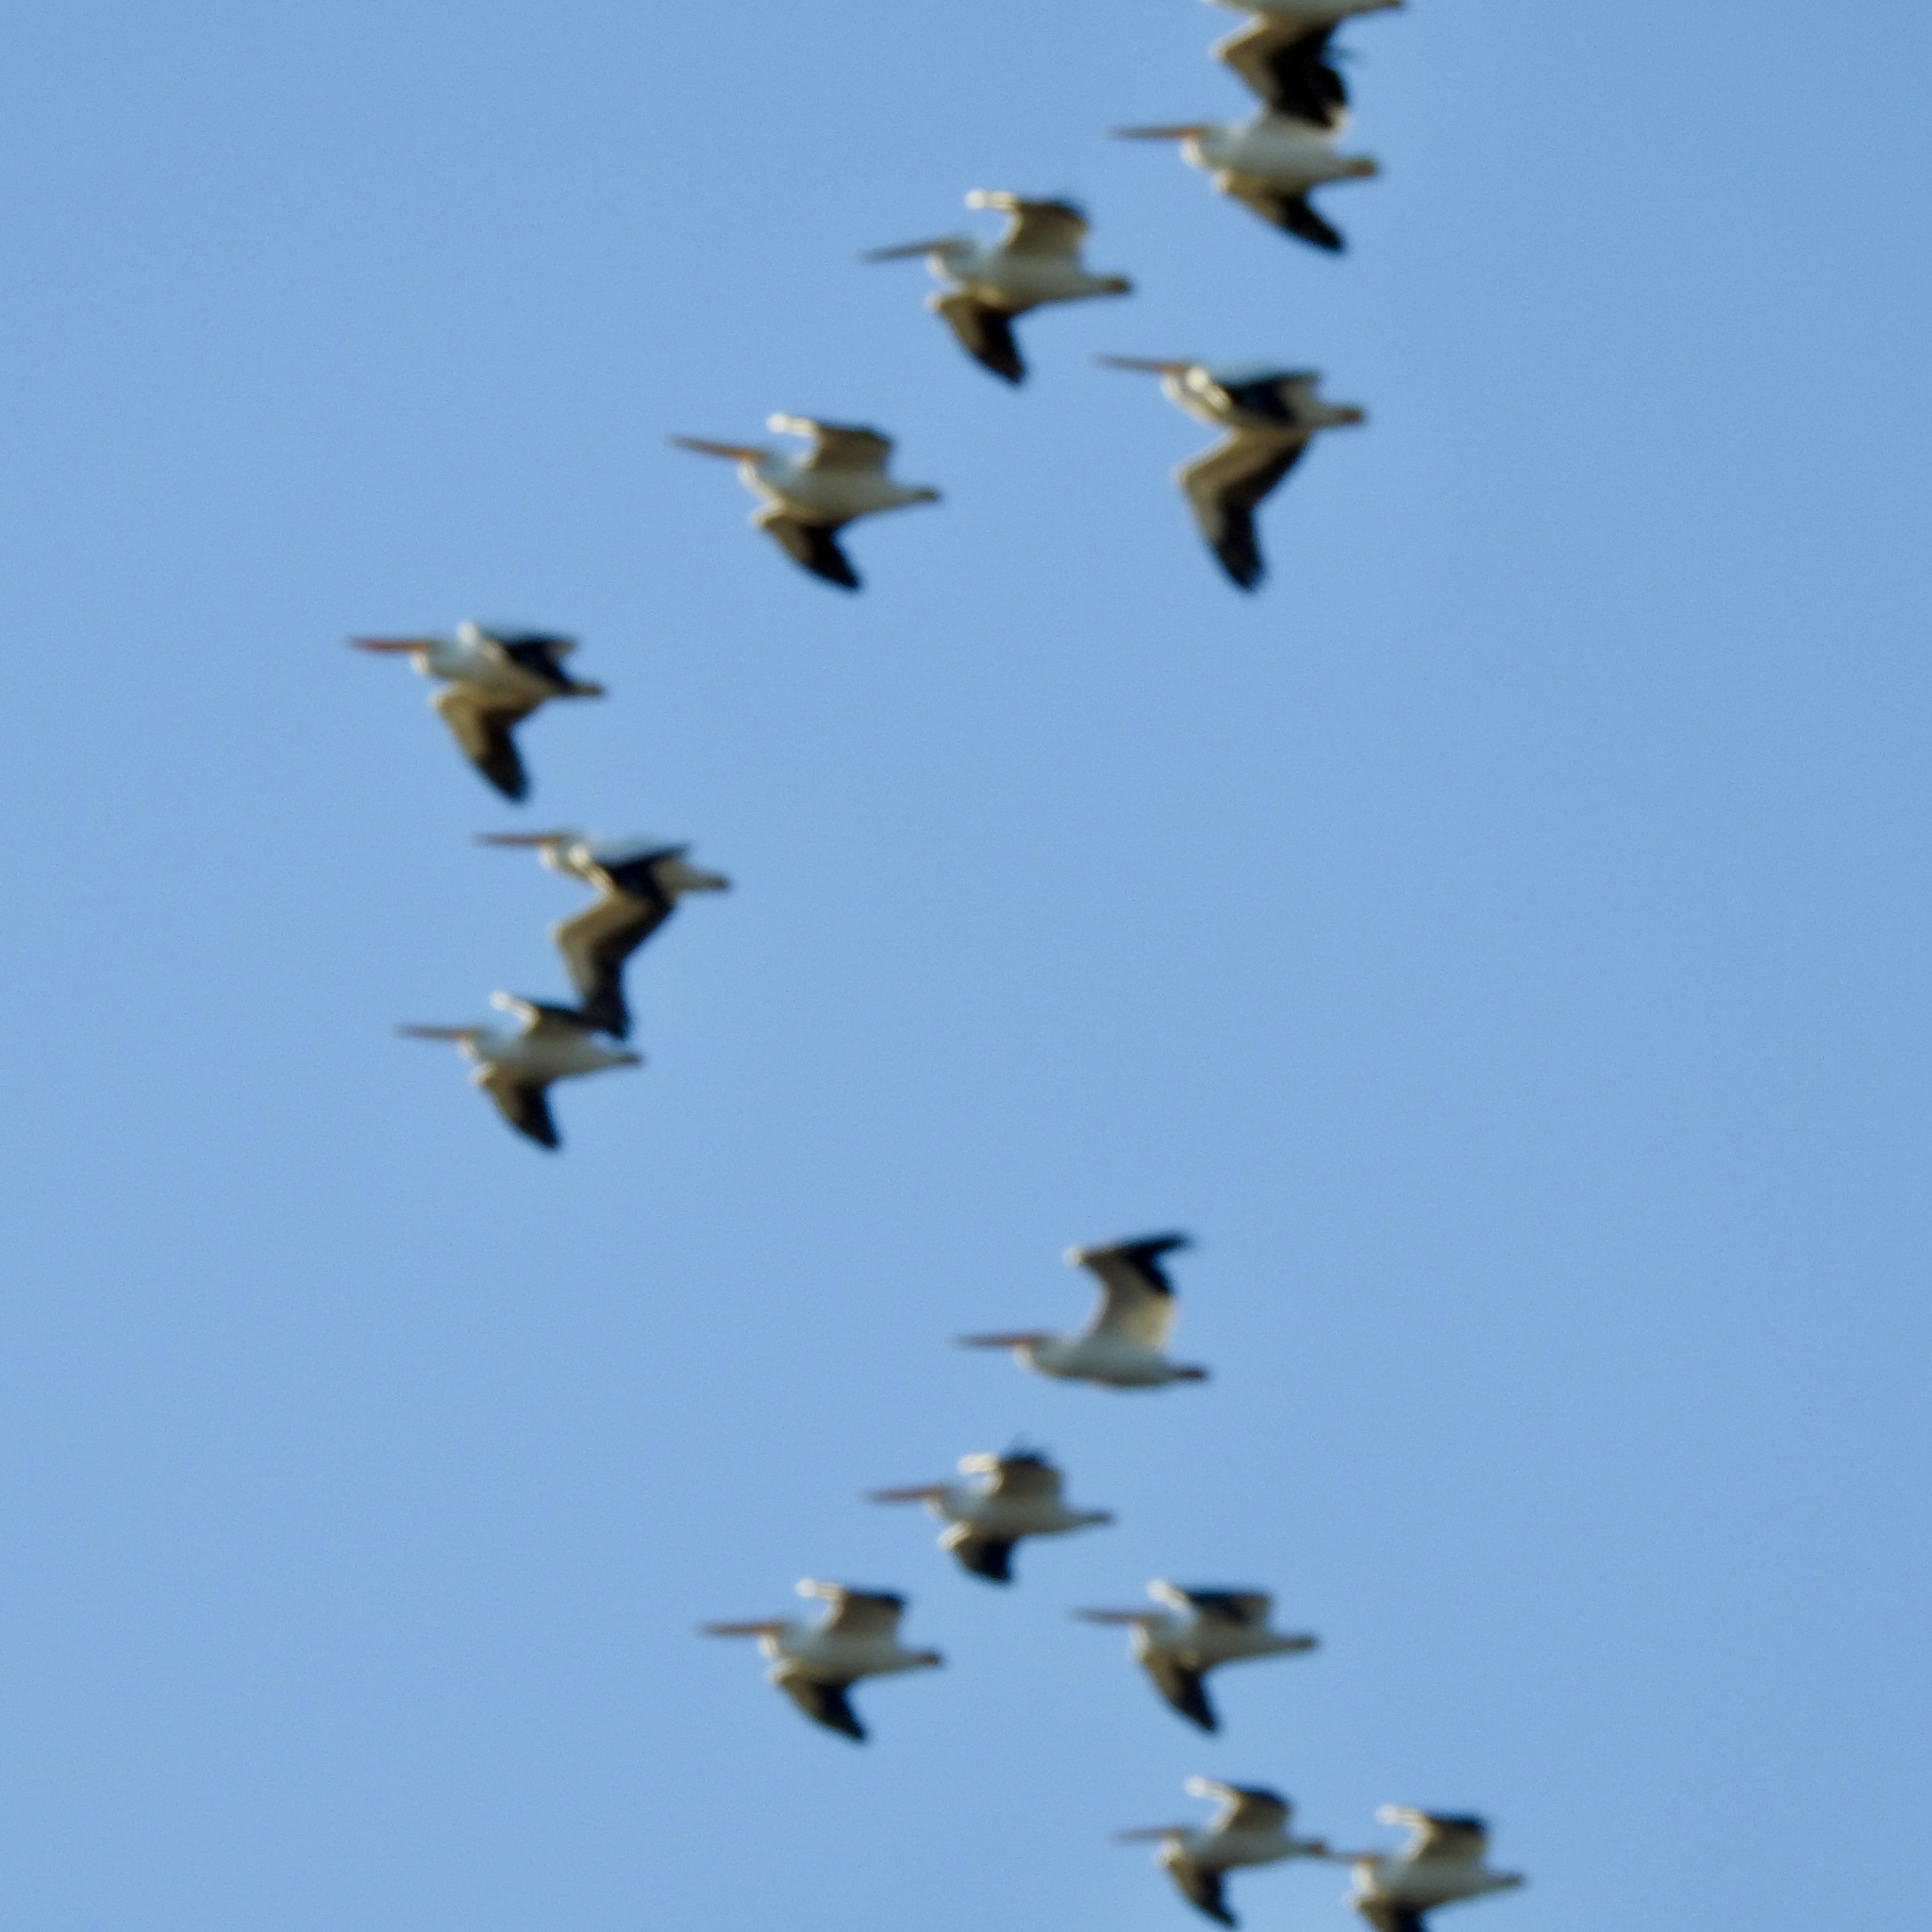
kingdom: Animalia
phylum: Chordata
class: Aves
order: Pelecaniformes
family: Pelecanidae
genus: Pelecanus
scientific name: Pelecanus erythrorhynchos
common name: American white pelican
